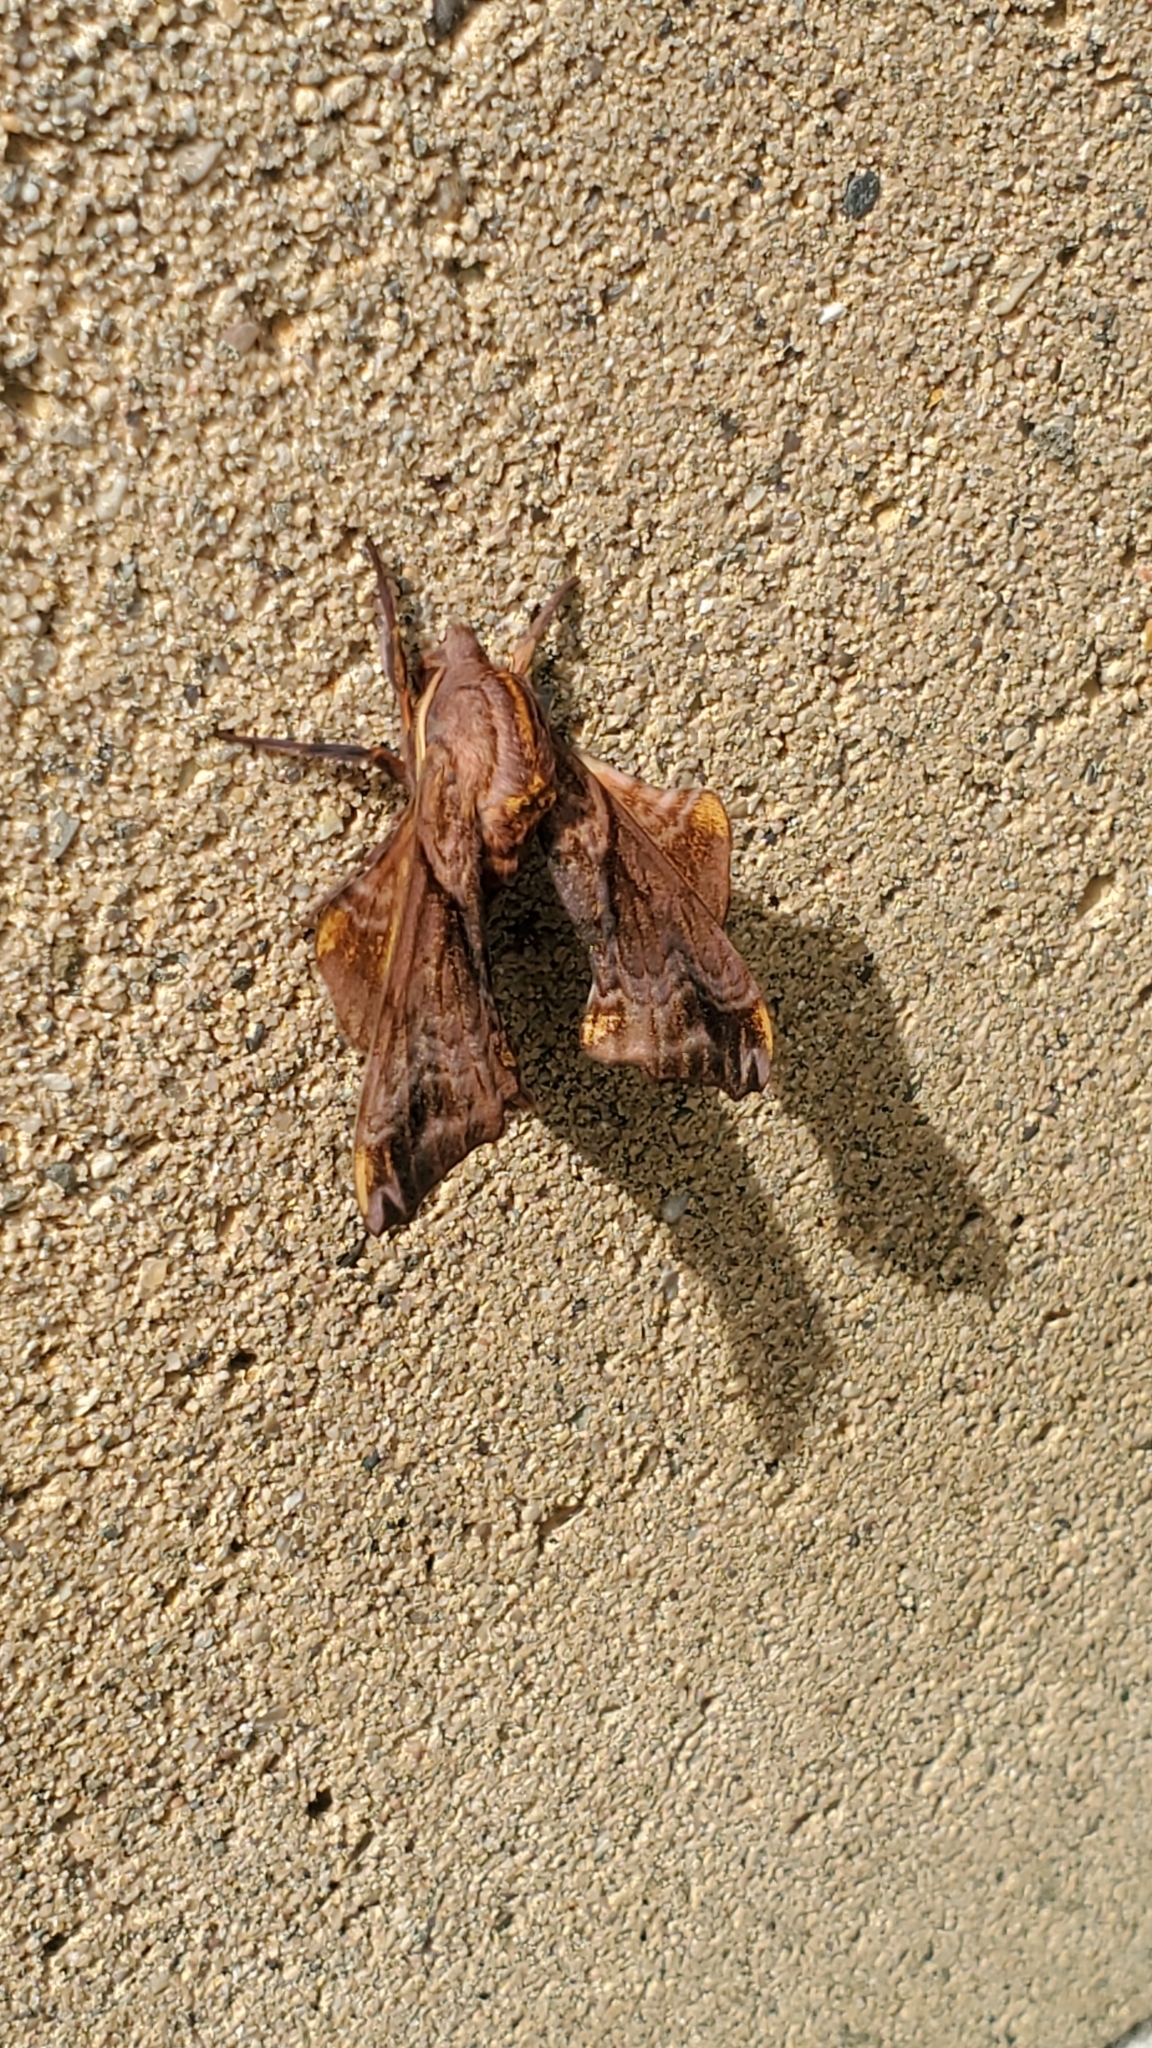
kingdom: Animalia
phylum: Arthropoda
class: Insecta
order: Lepidoptera
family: Sphingidae
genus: Paonias
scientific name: Paonias myops
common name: Small-eyed sphinx
